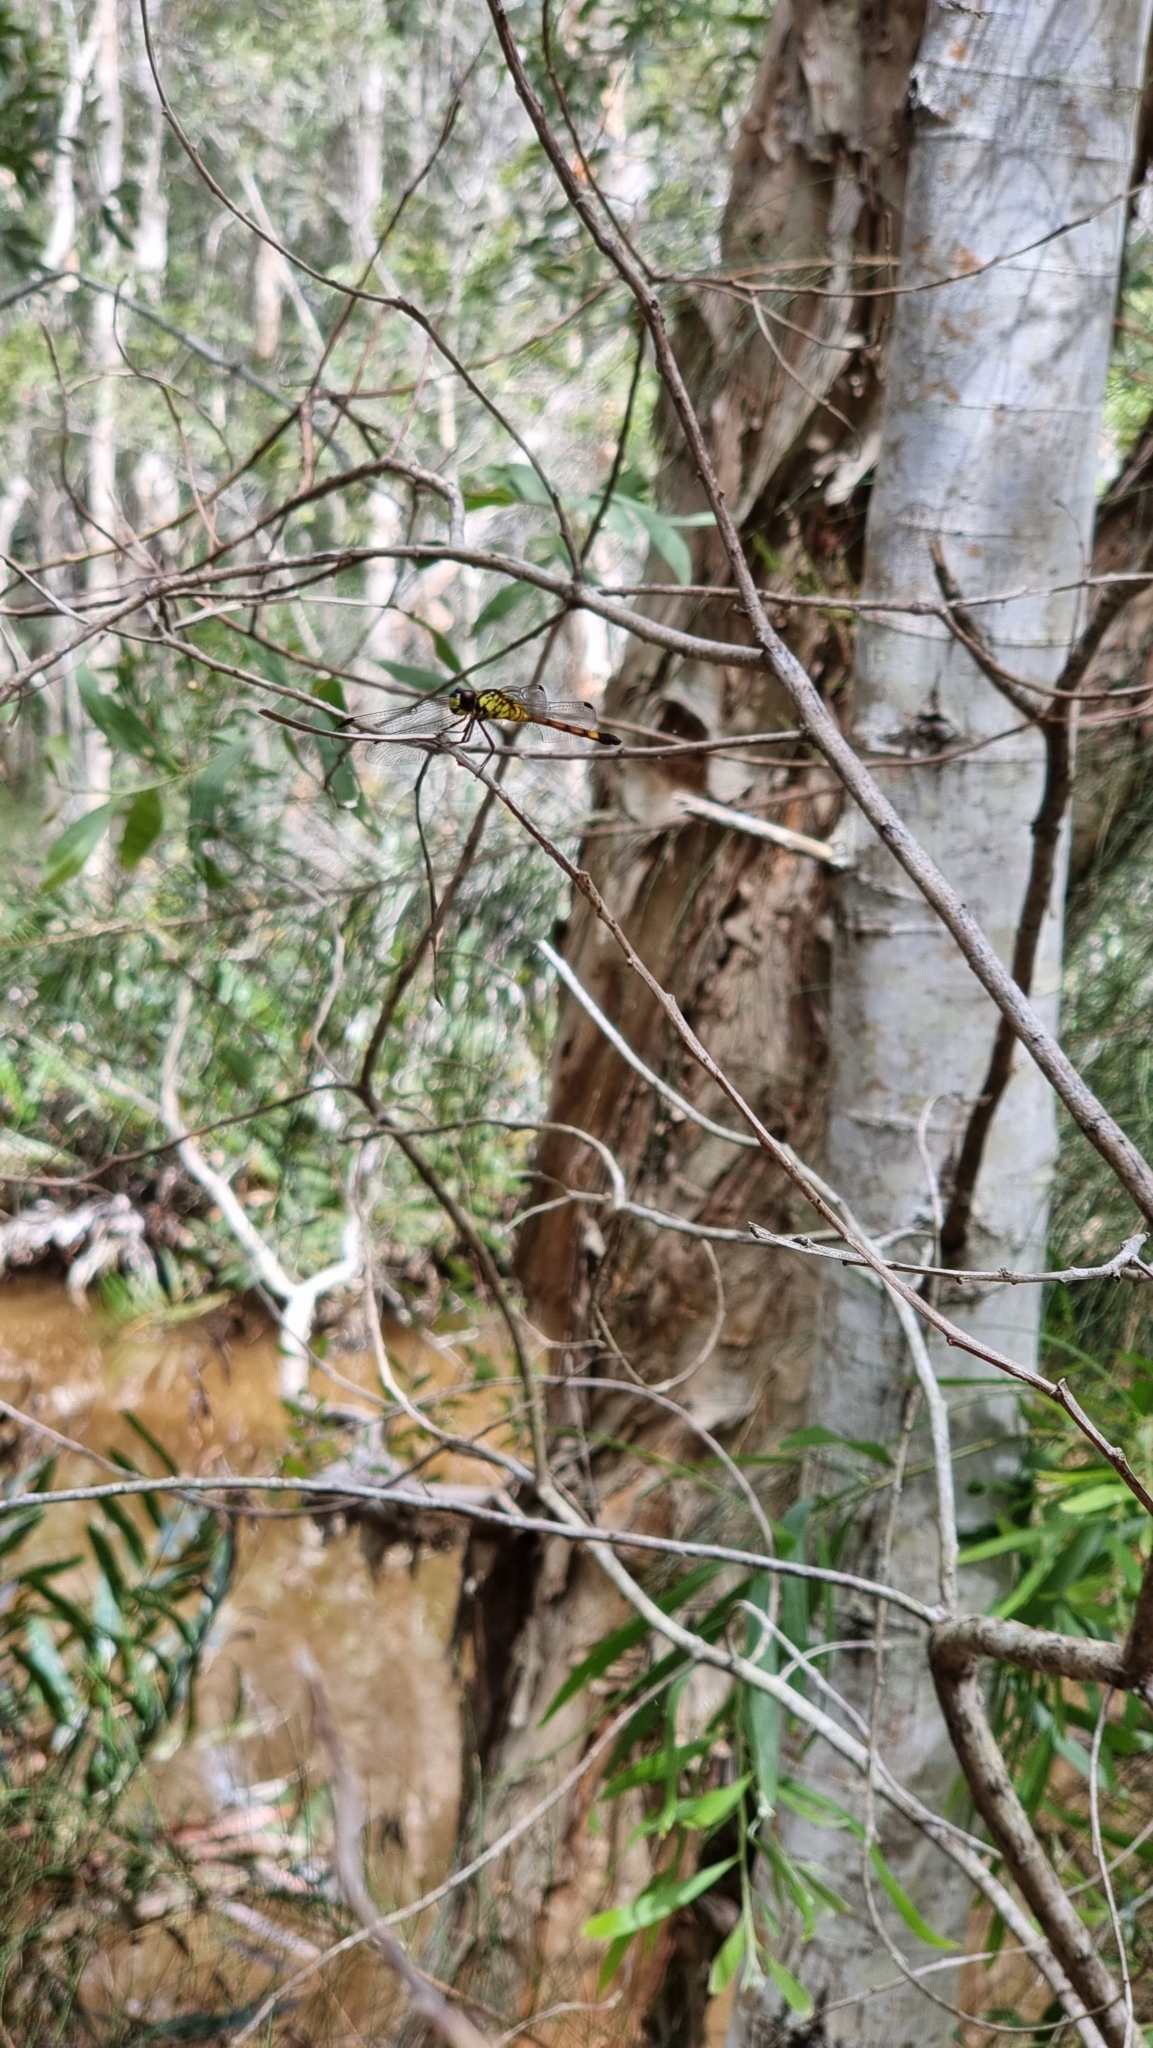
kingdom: Animalia
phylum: Arthropoda
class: Insecta
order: Odonata
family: Libellulidae
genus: Agrionoptera
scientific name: Agrionoptera insignis
